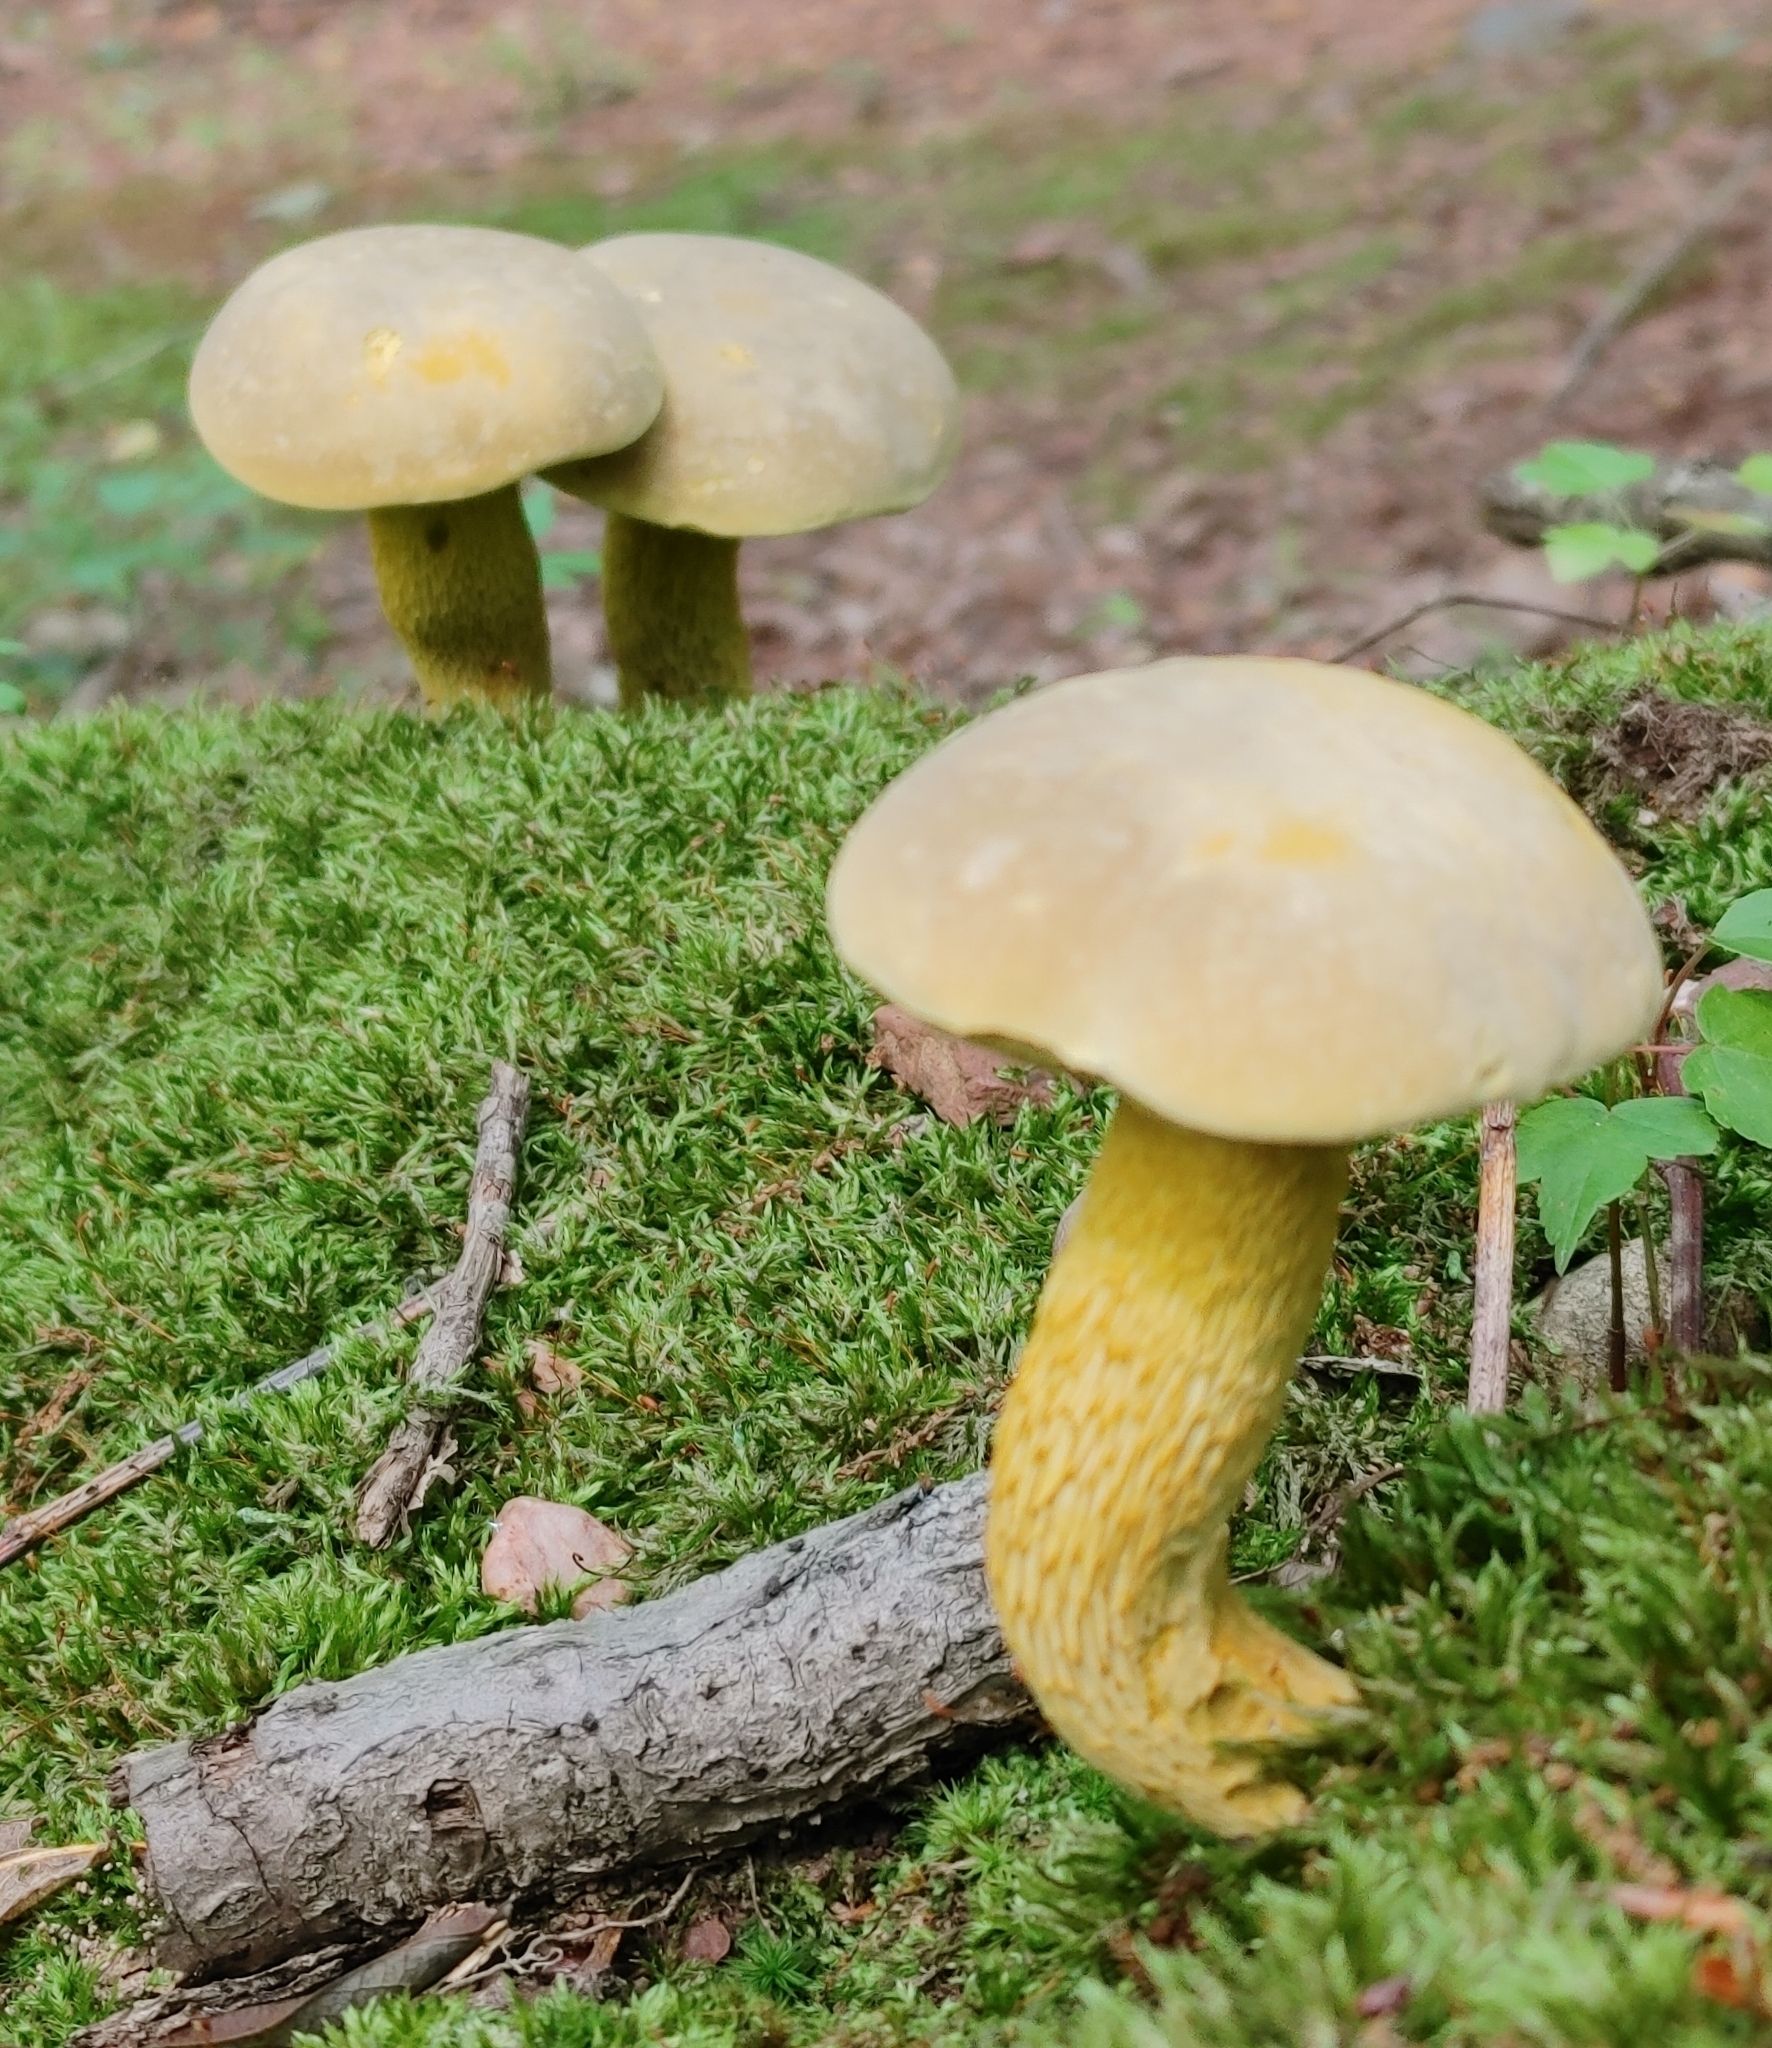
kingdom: Fungi
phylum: Basidiomycota
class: Agaricomycetes
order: Boletales
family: Boletaceae
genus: Retiboletus
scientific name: Retiboletus ornatipes
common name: Ornate-stalked bolete
